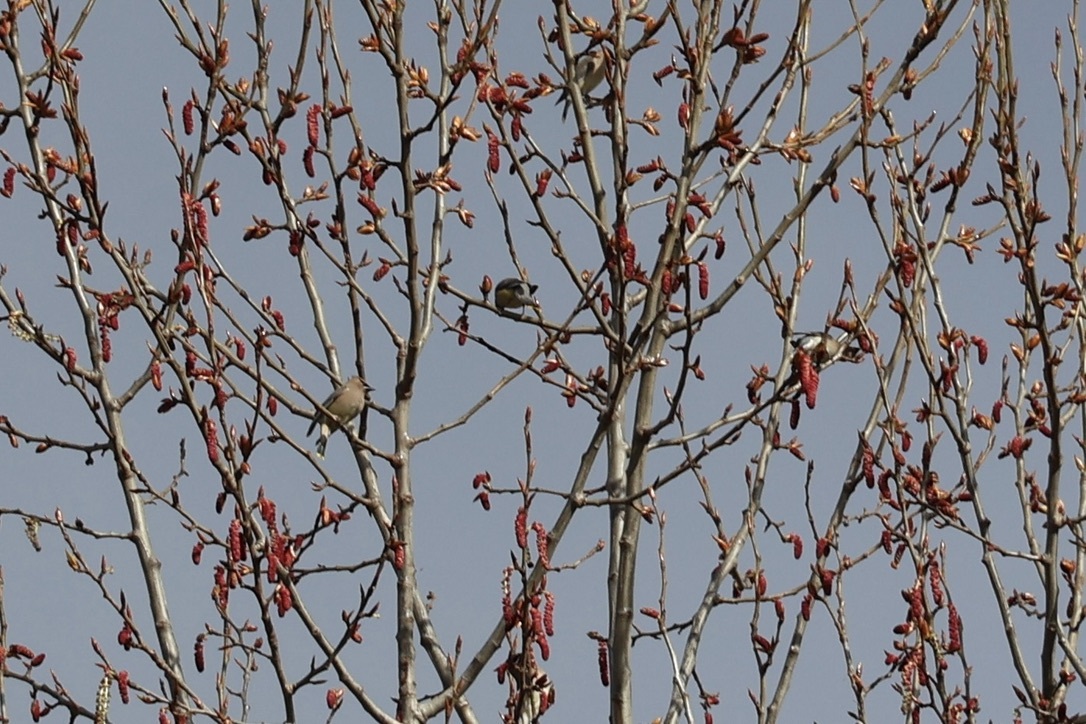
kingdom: Animalia
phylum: Chordata
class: Aves
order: Passeriformes
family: Bombycillidae
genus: Bombycilla
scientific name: Bombycilla cedrorum
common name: Cedar waxwing
